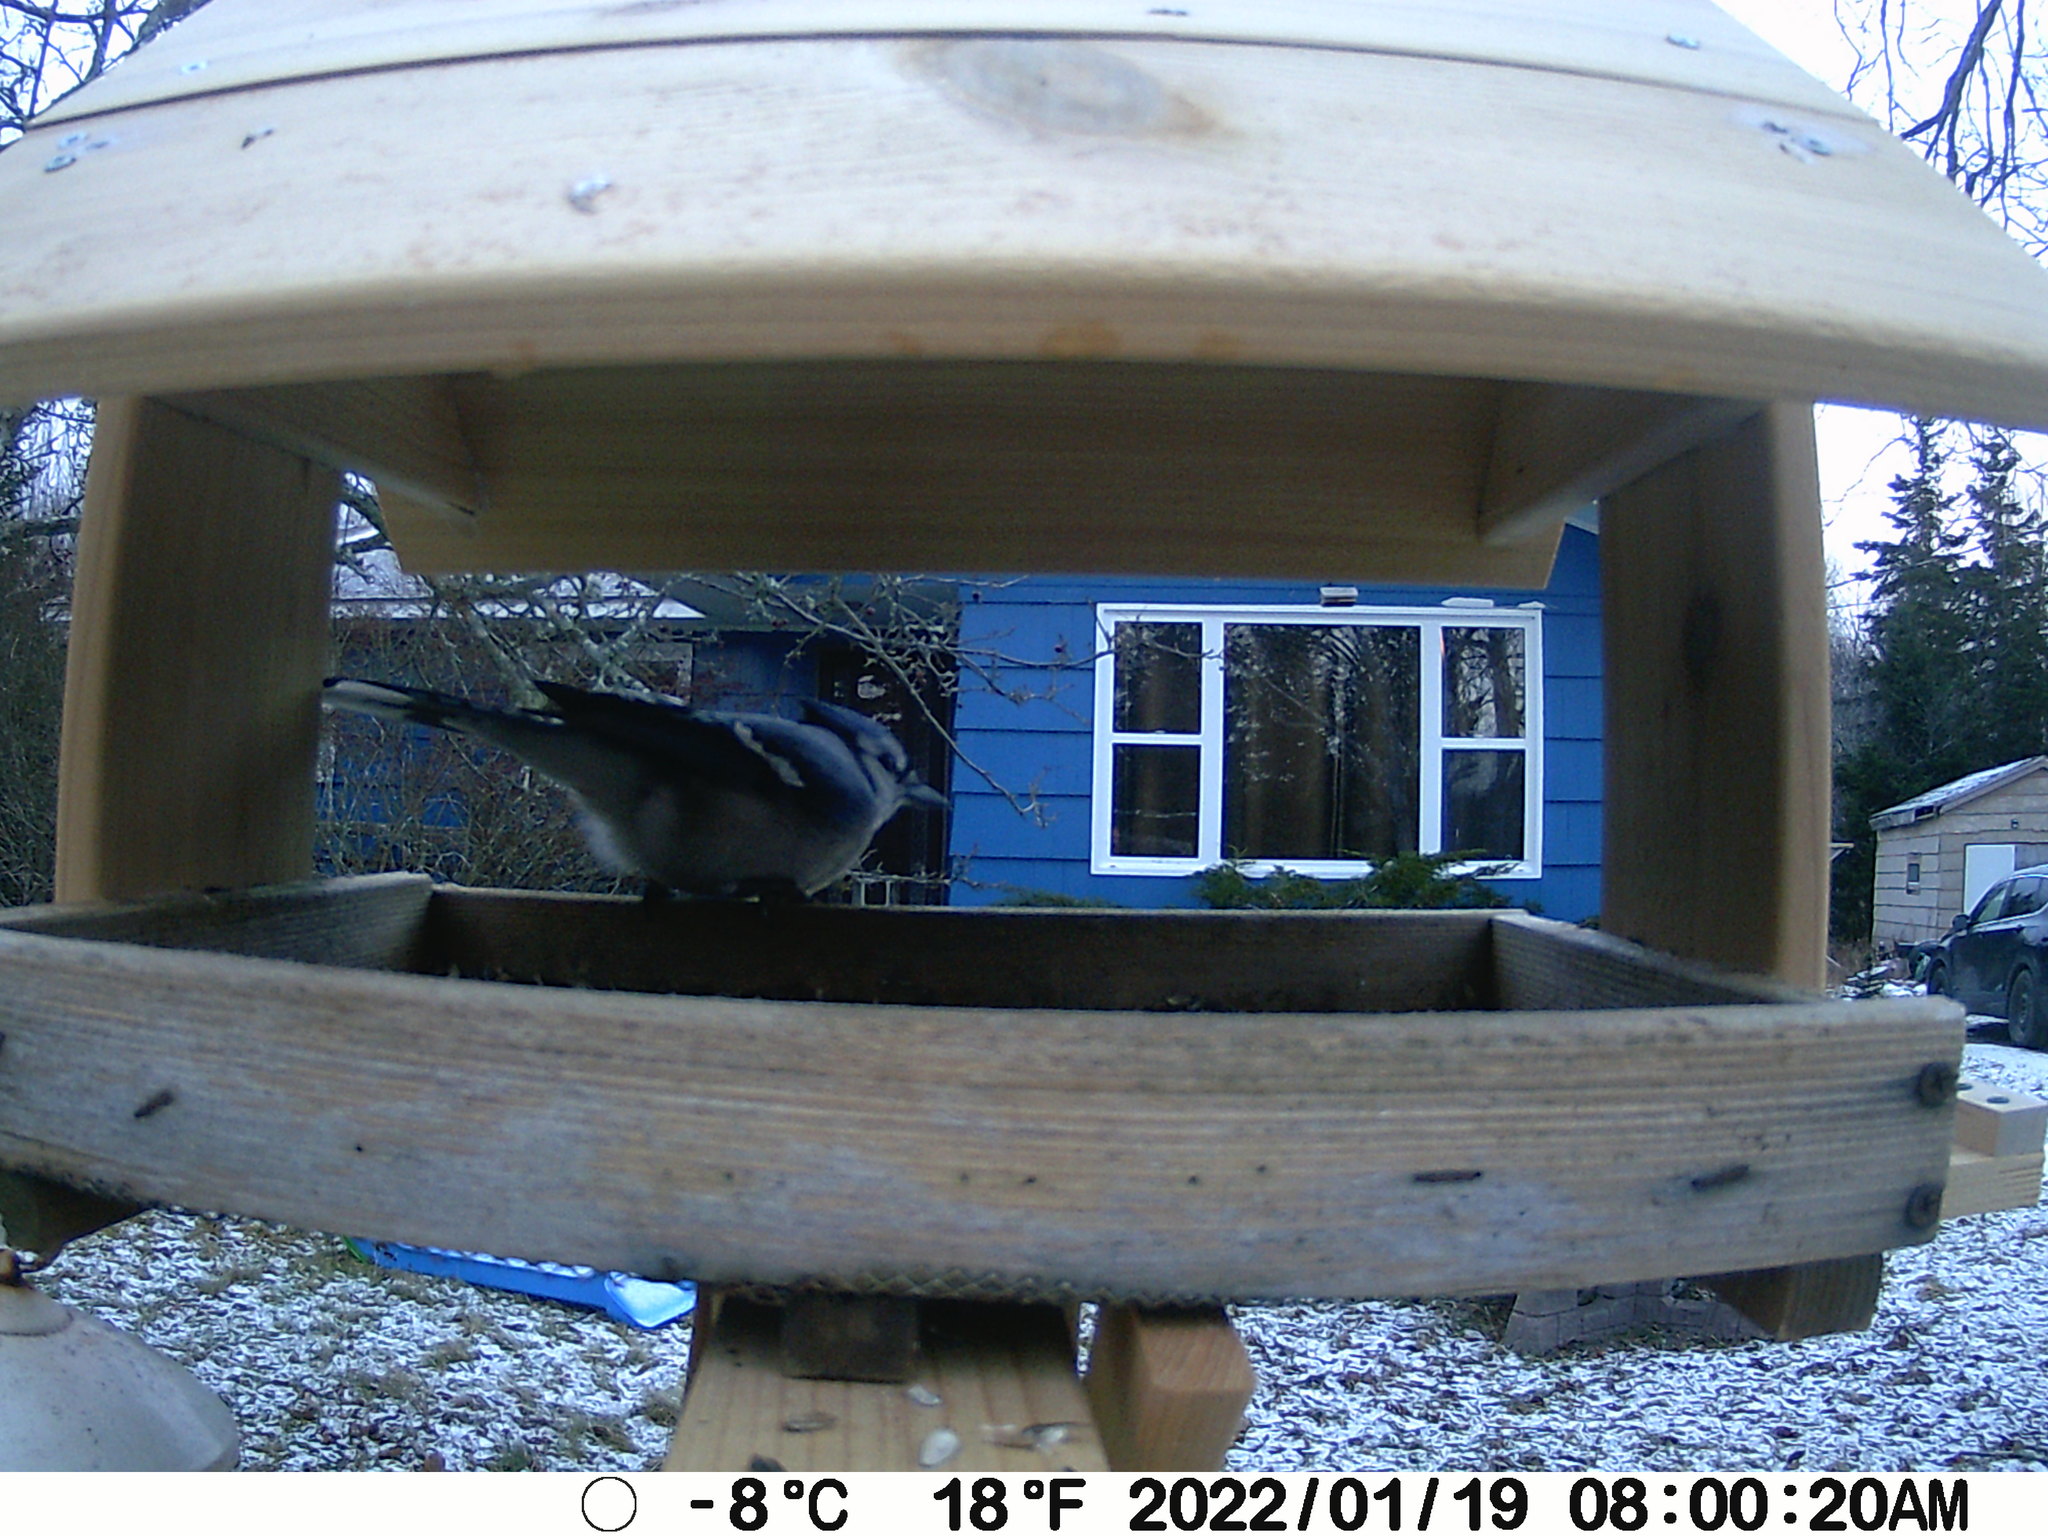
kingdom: Animalia
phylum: Chordata
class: Aves
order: Passeriformes
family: Corvidae
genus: Cyanocitta
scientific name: Cyanocitta cristata
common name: Blue jay
